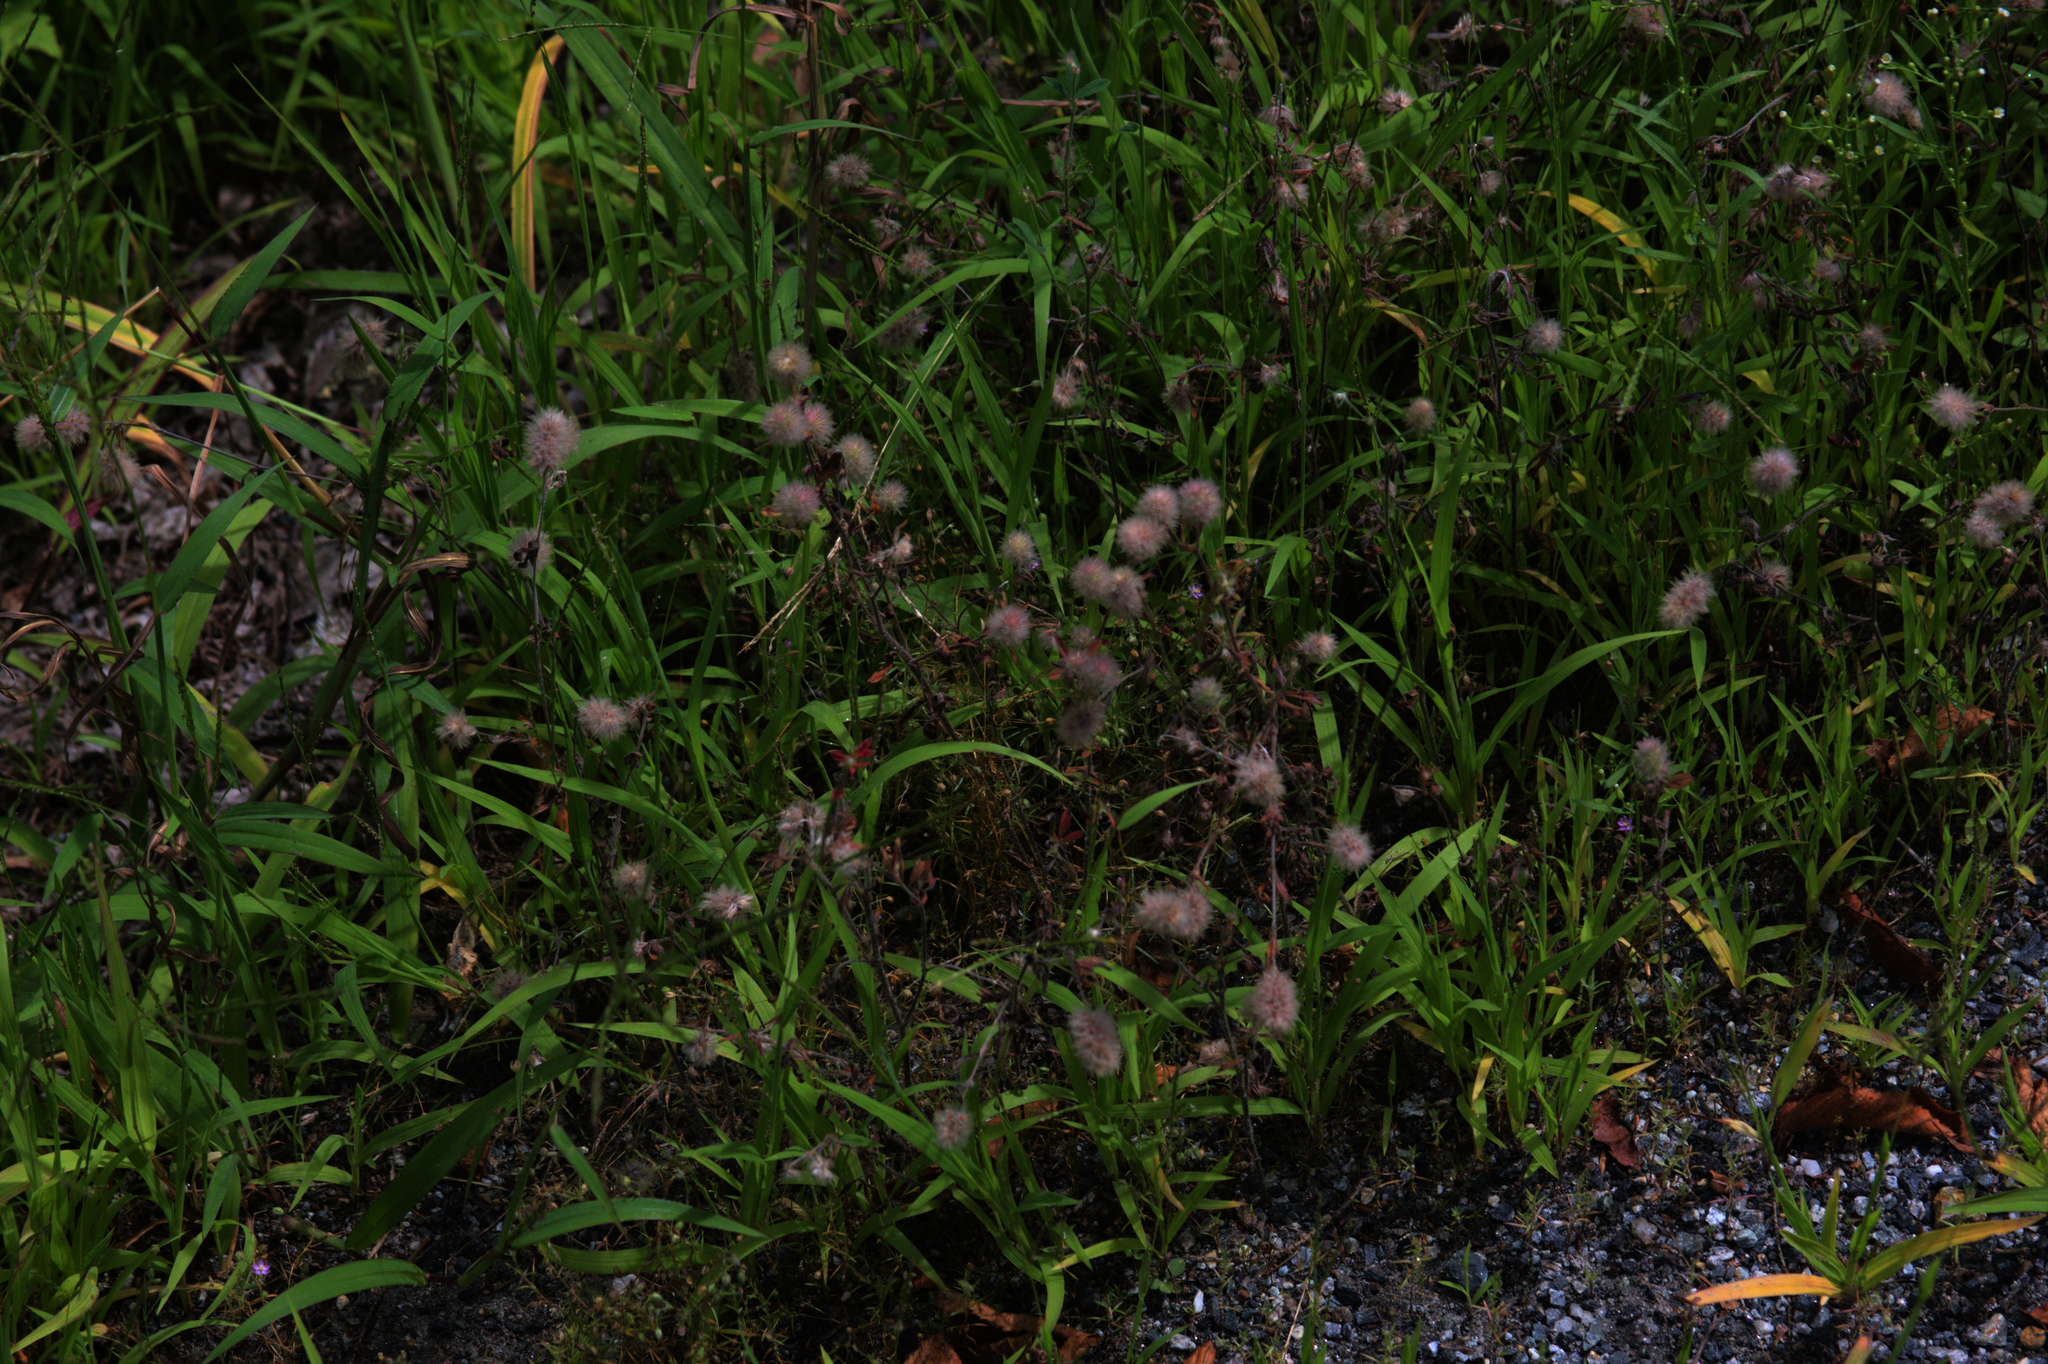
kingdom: Plantae
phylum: Tracheophyta
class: Magnoliopsida
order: Fabales
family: Fabaceae
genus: Trifolium
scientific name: Trifolium arvense
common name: Hare's-foot clover
